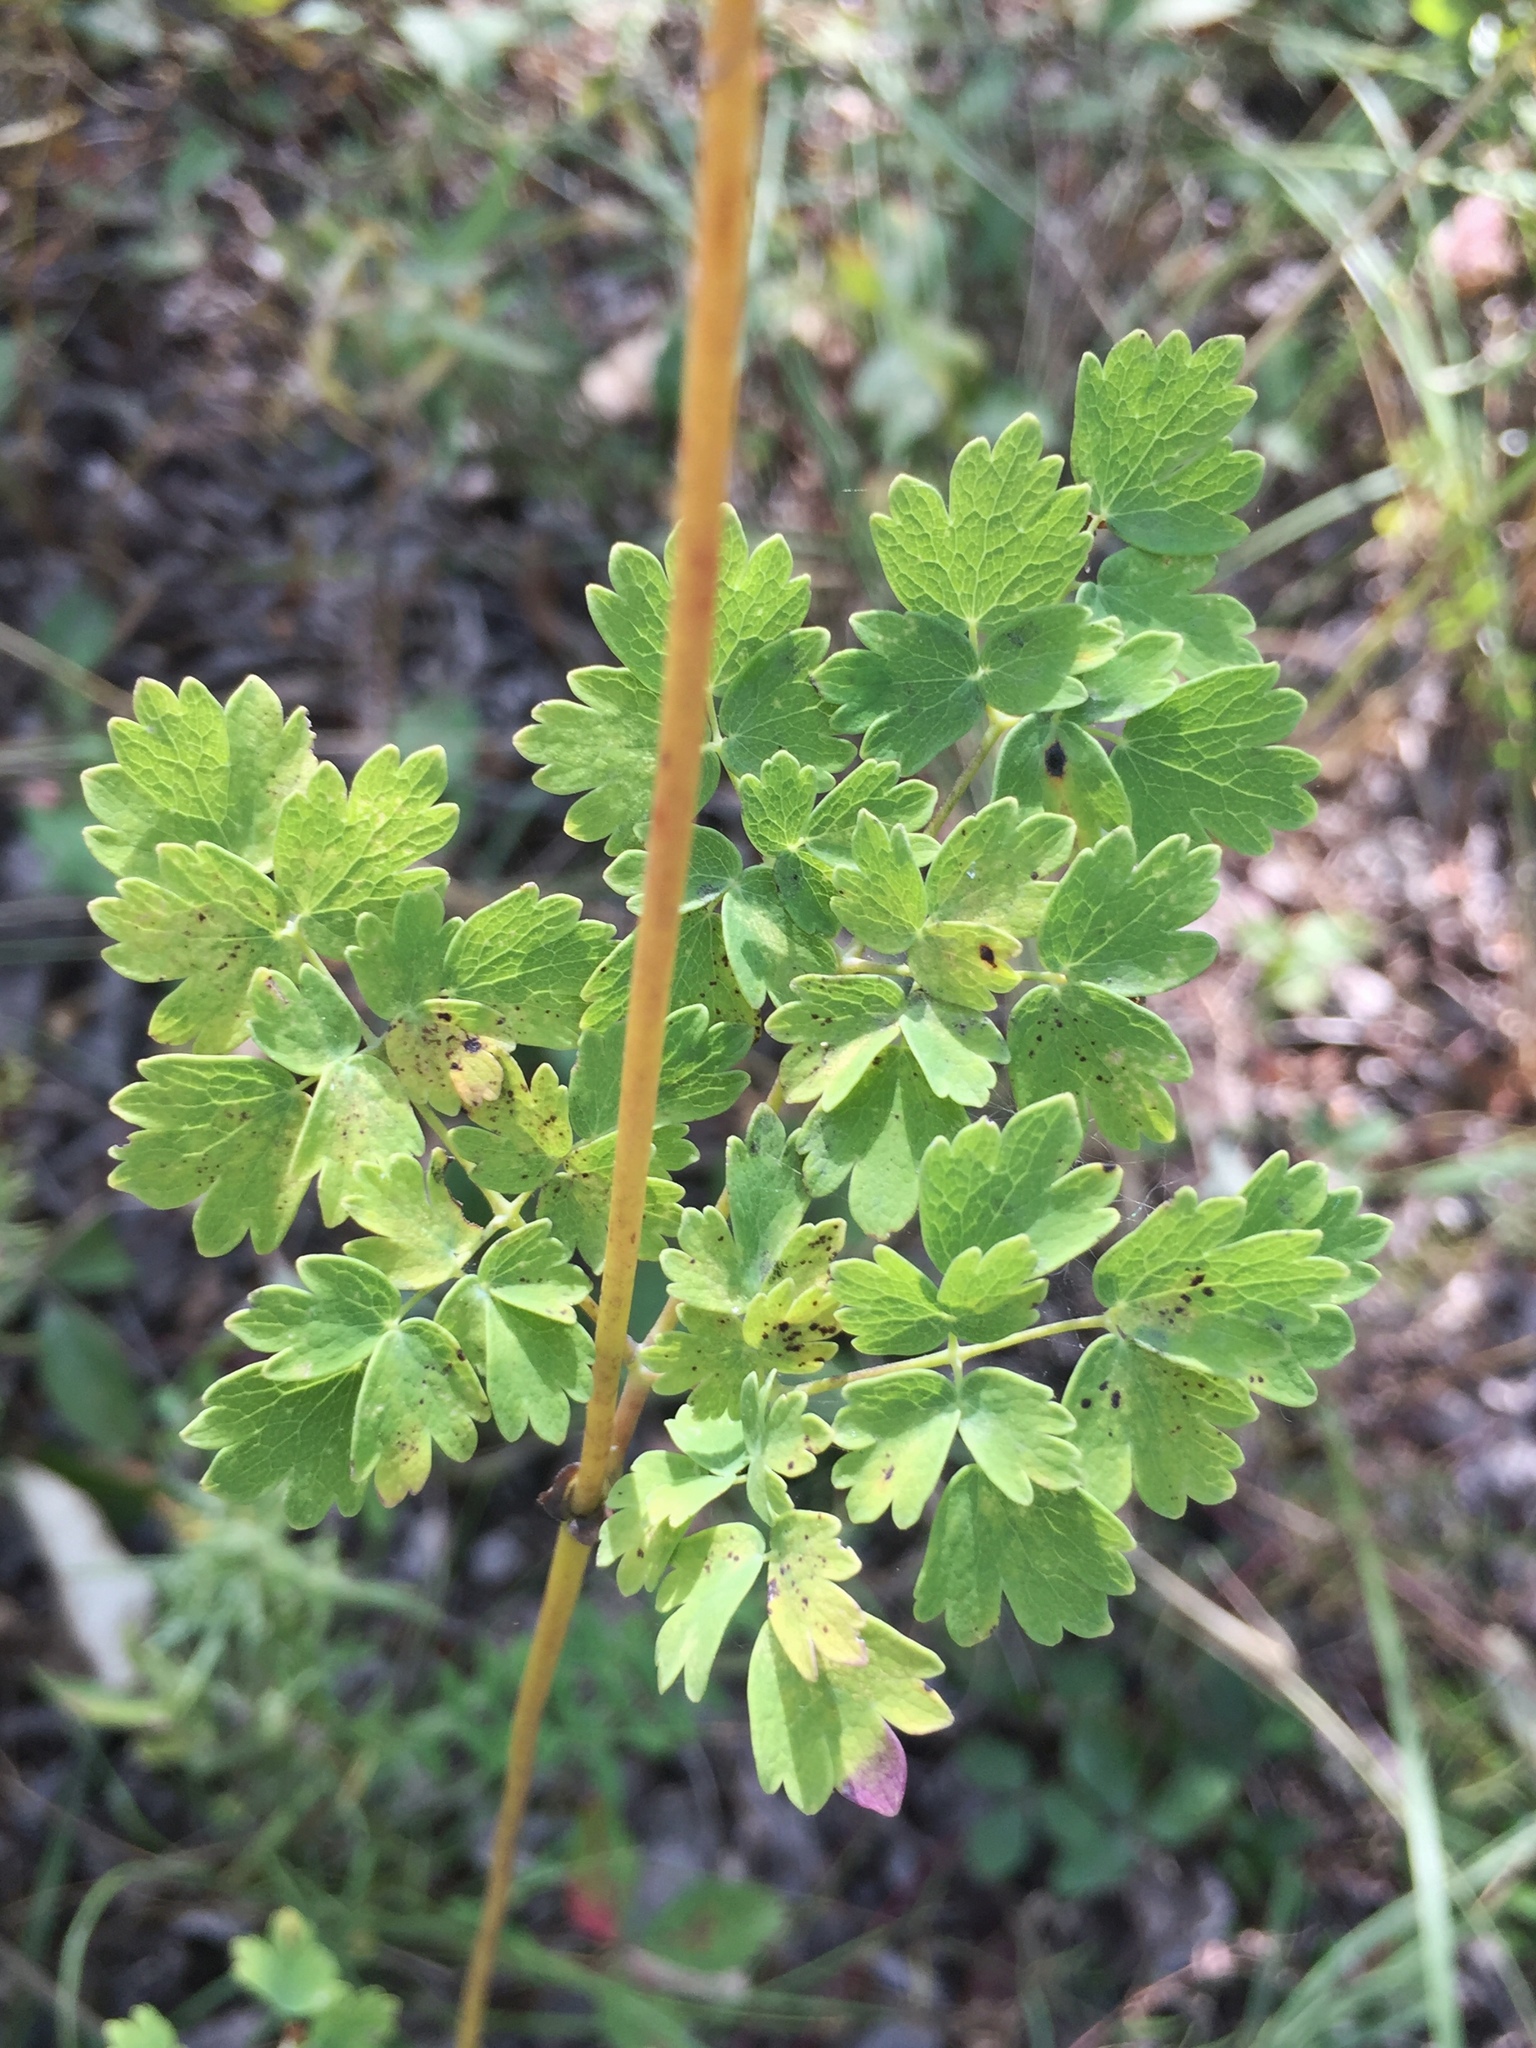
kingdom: Plantae
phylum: Tracheophyta
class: Magnoliopsida
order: Ranunculales
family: Ranunculaceae
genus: Thalictrum
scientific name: Thalictrum venulosum
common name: Early meadow-rue
